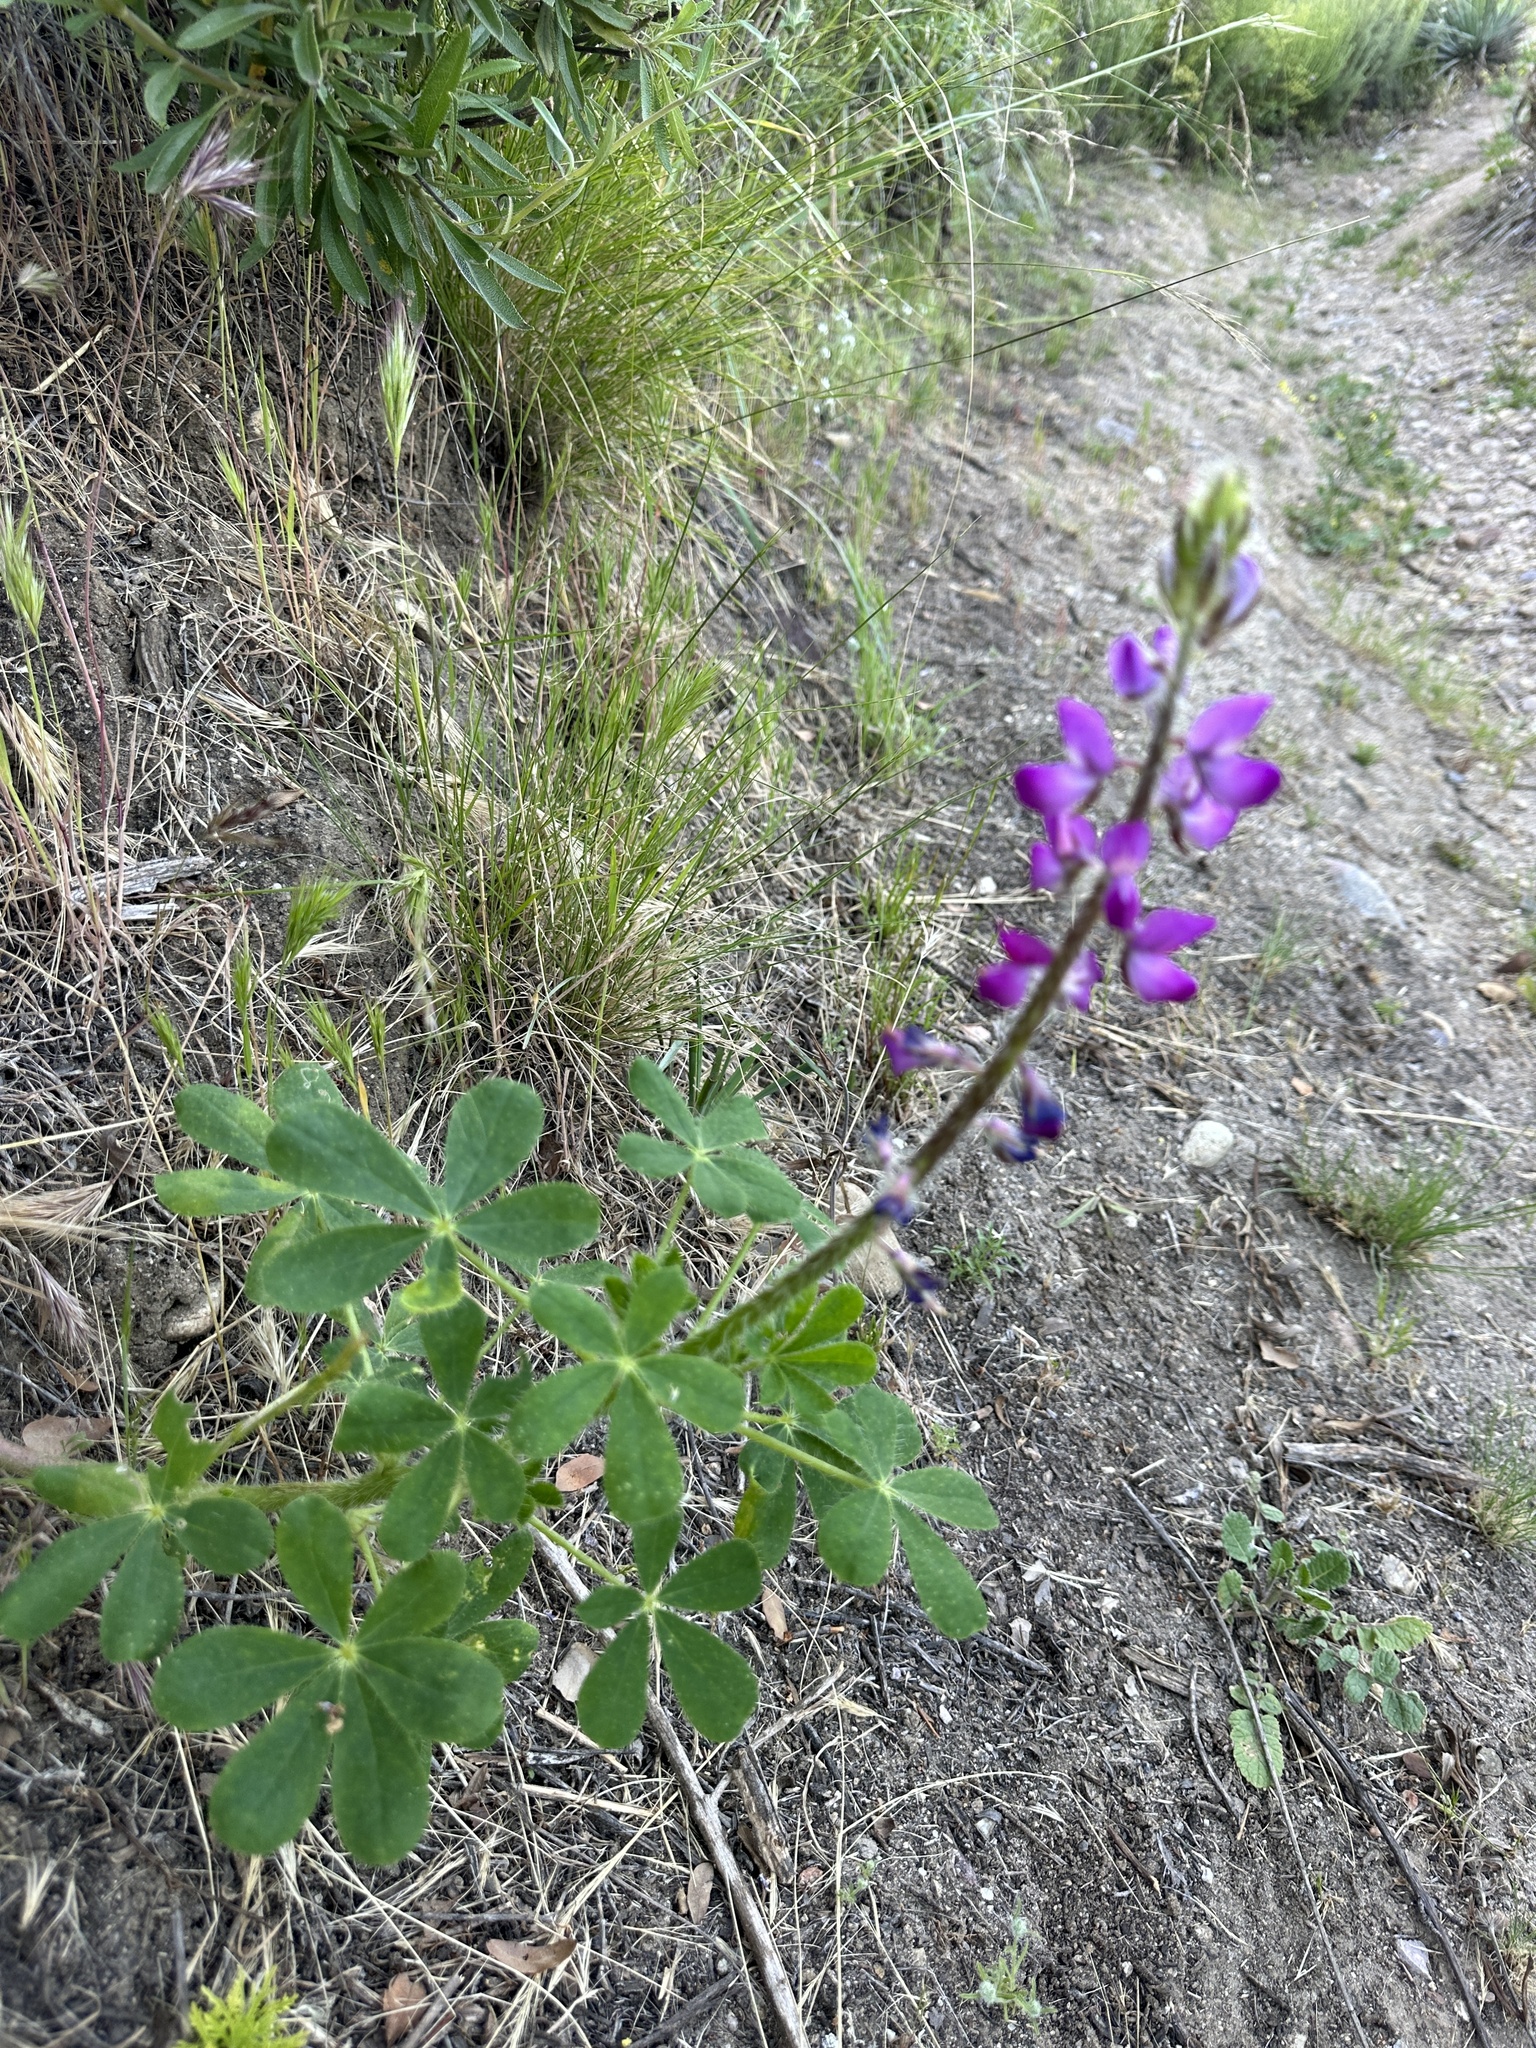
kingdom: Plantae
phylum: Tracheophyta
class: Magnoliopsida
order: Fabales
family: Fabaceae
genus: Lupinus
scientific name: Lupinus hirsutissimus
